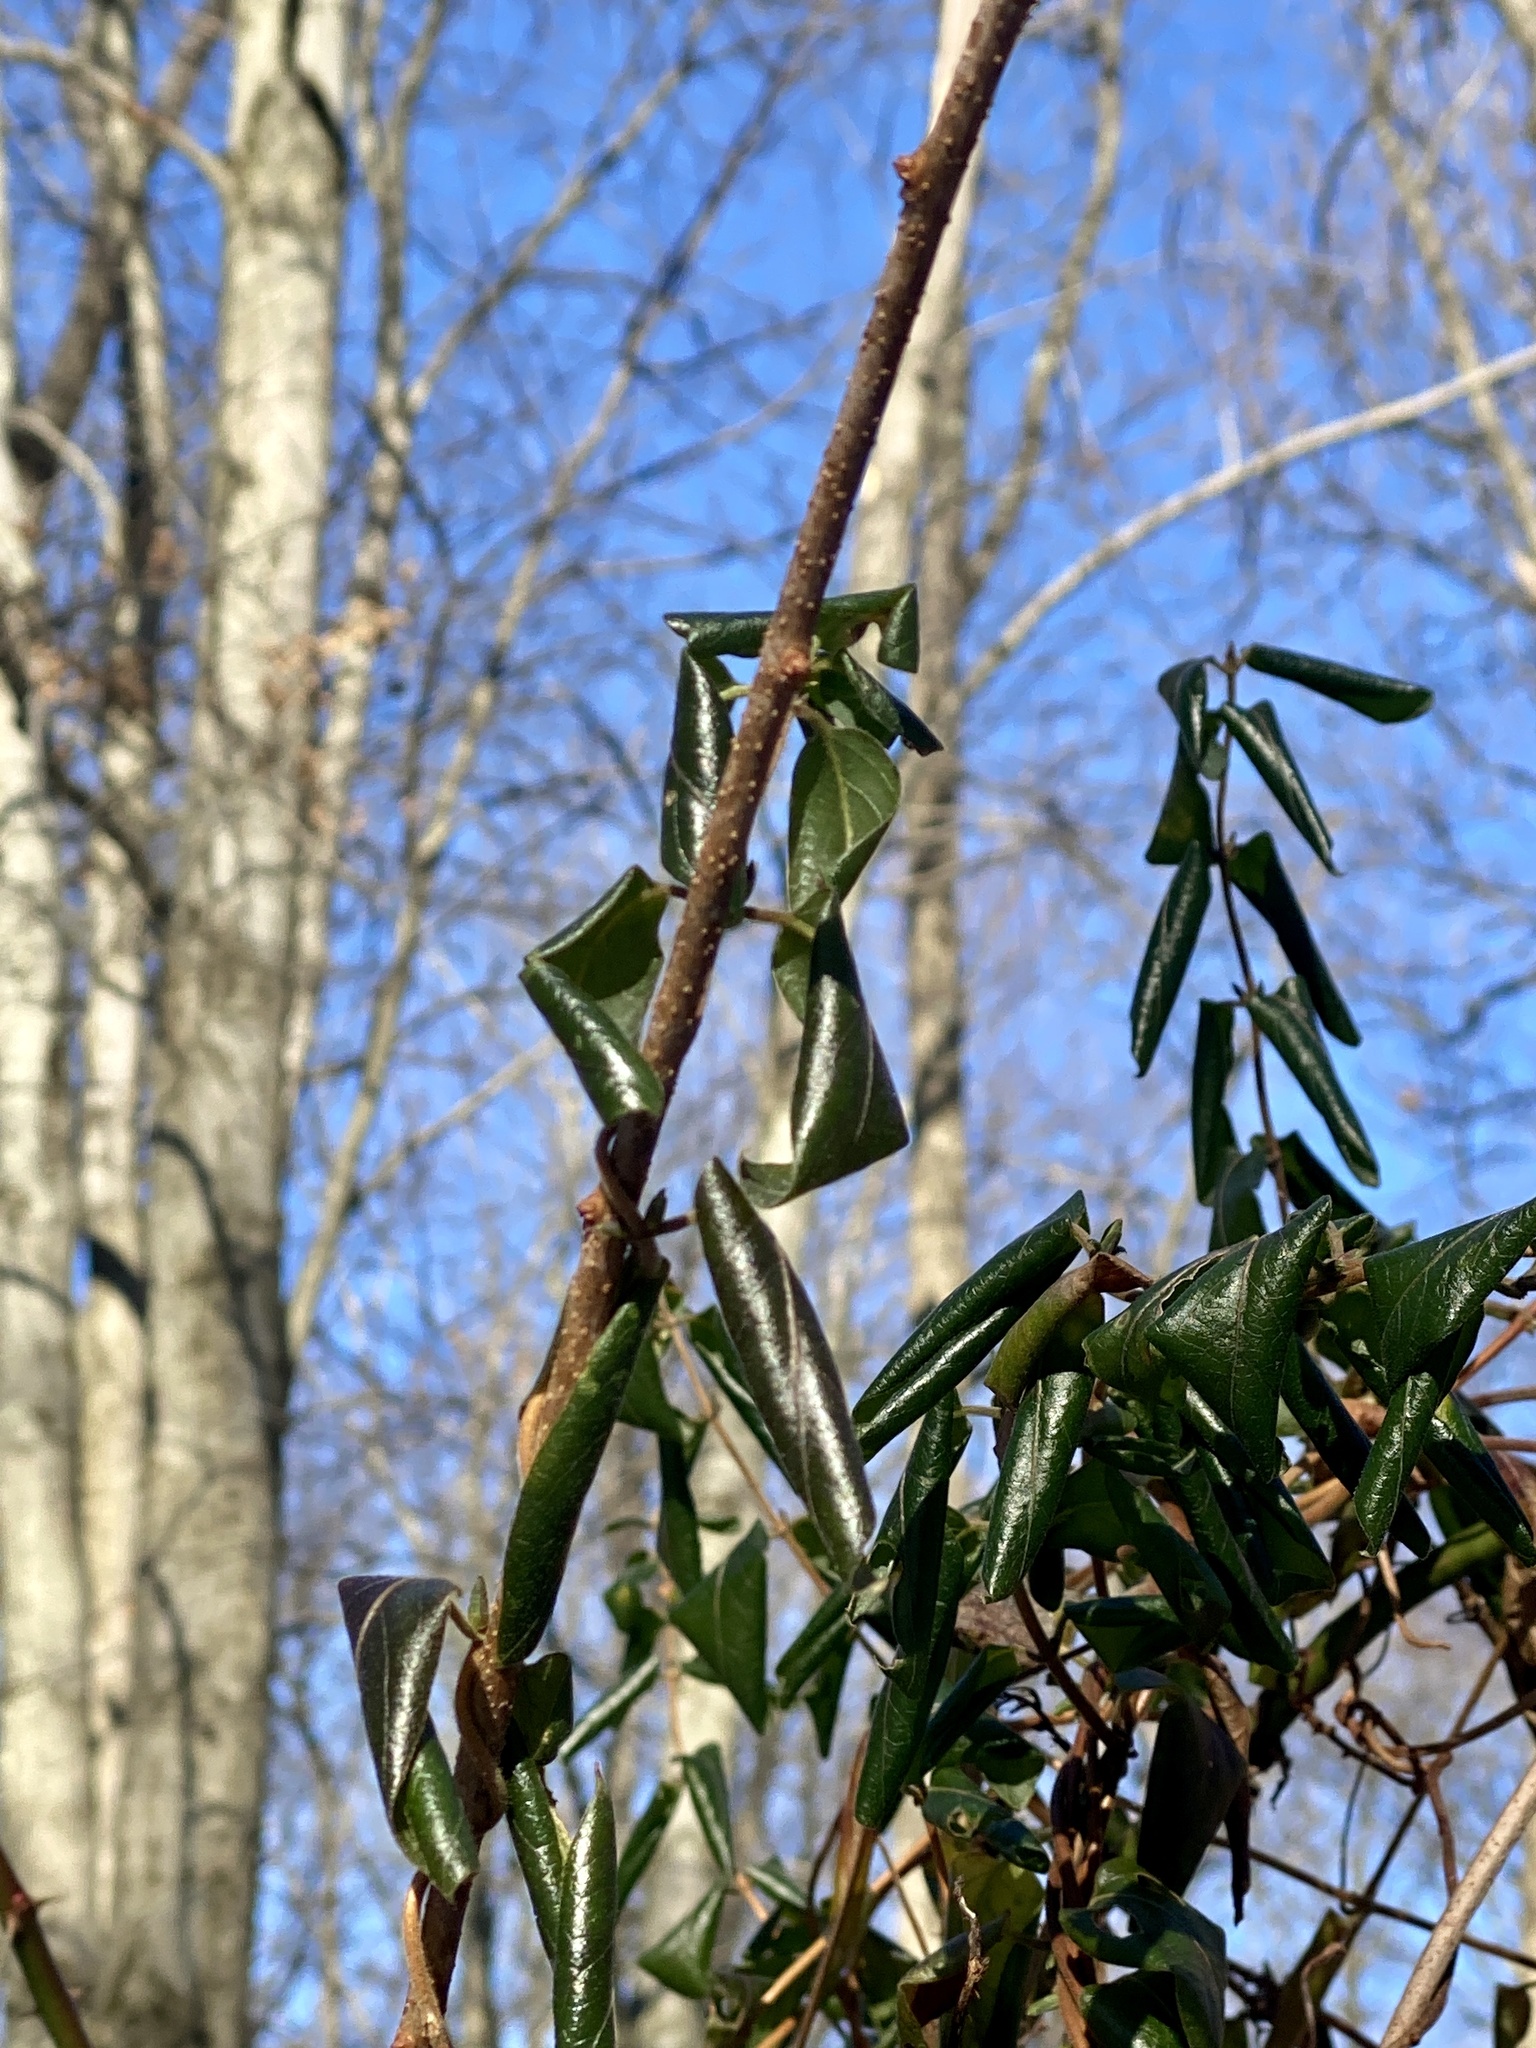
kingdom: Plantae
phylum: Tracheophyta
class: Magnoliopsida
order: Dipsacales
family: Caprifoliaceae
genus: Lonicera
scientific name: Lonicera japonica
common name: Japanese honeysuckle
